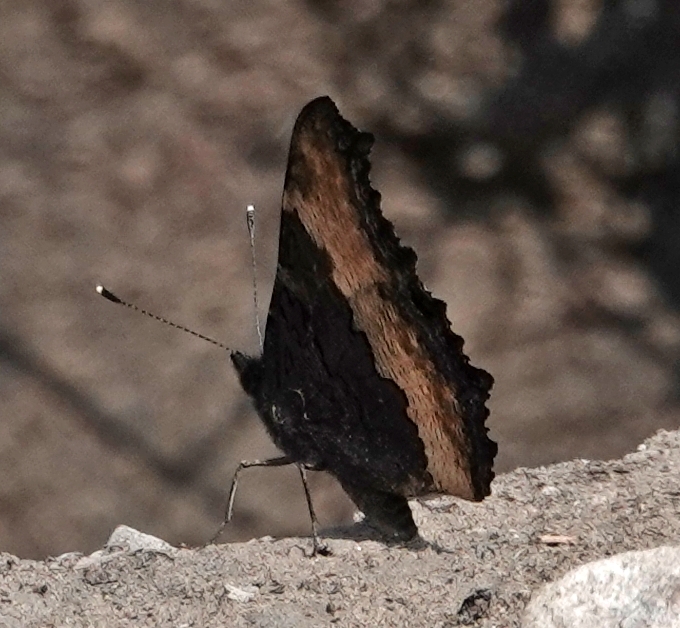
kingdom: Animalia
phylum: Arthropoda
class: Insecta
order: Lepidoptera
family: Nymphalidae
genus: Aglais
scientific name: Aglais milberti
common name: Milbert's tortoiseshell
